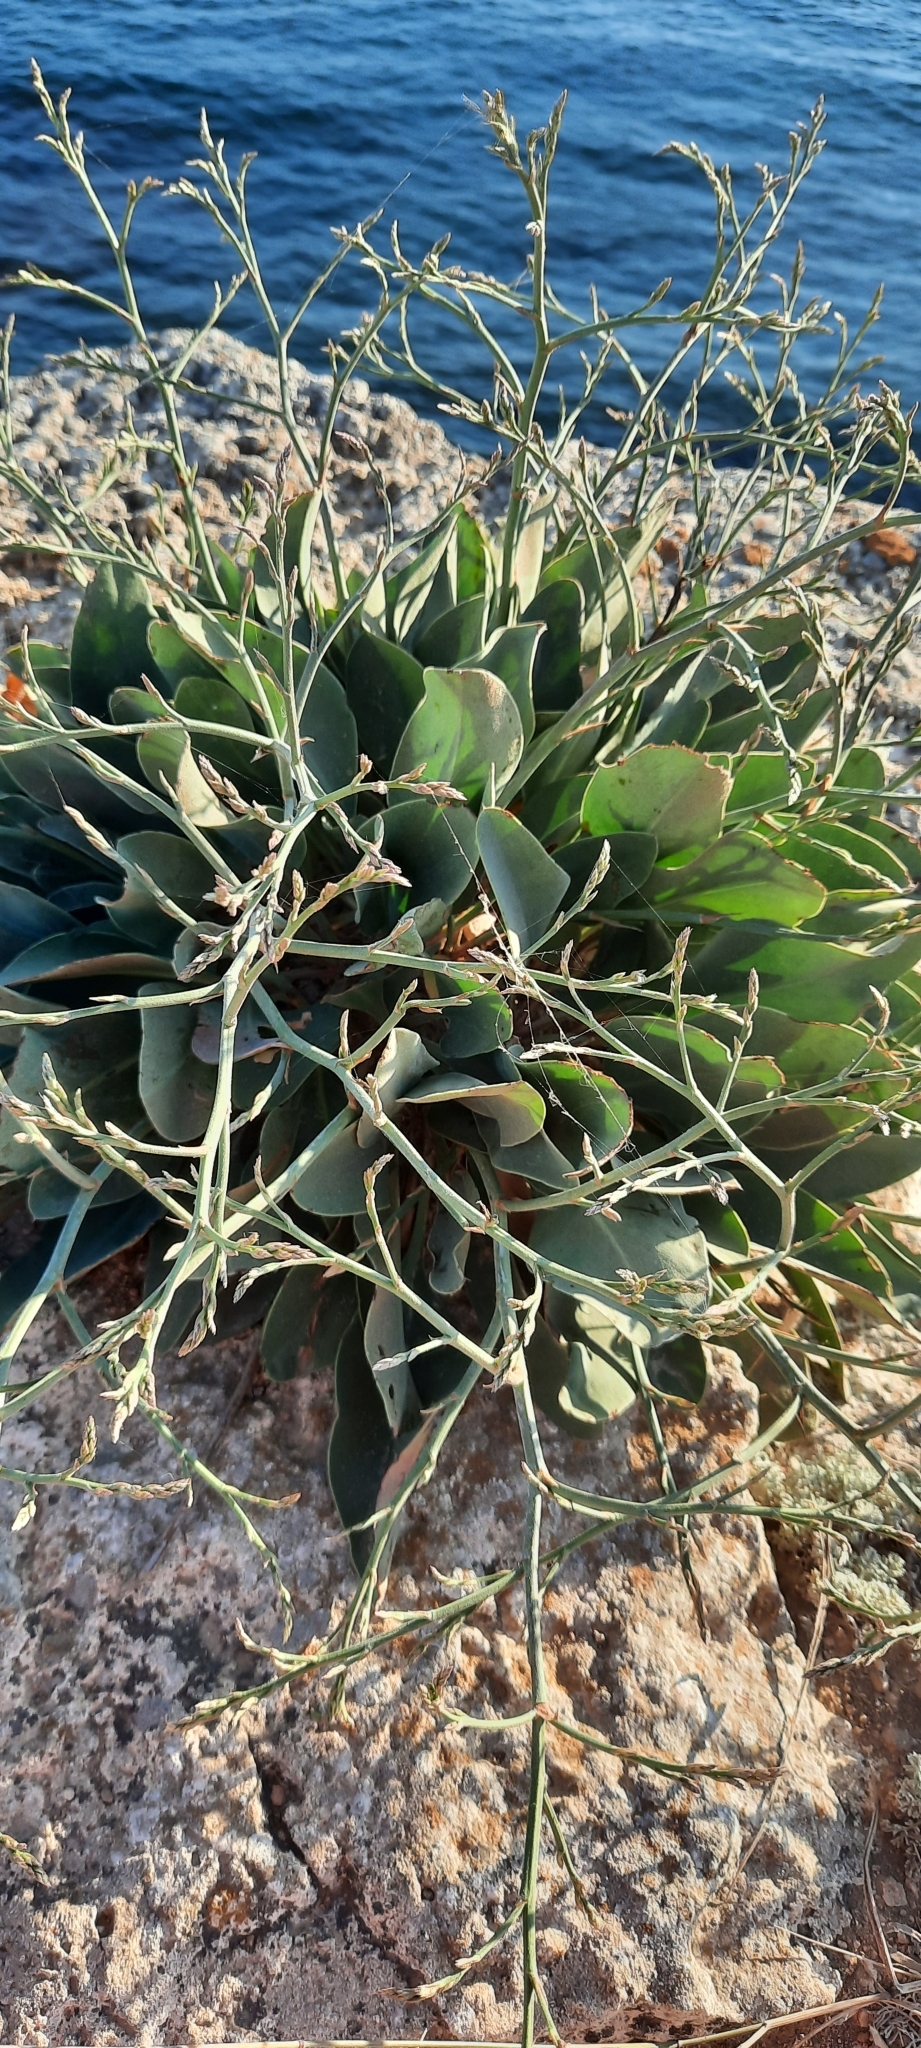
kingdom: Plantae
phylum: Tracheophyta
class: Magnoliopsida
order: Caryophyllales
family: Plumbaginaceae
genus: Limonium
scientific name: Limonium gmelini
